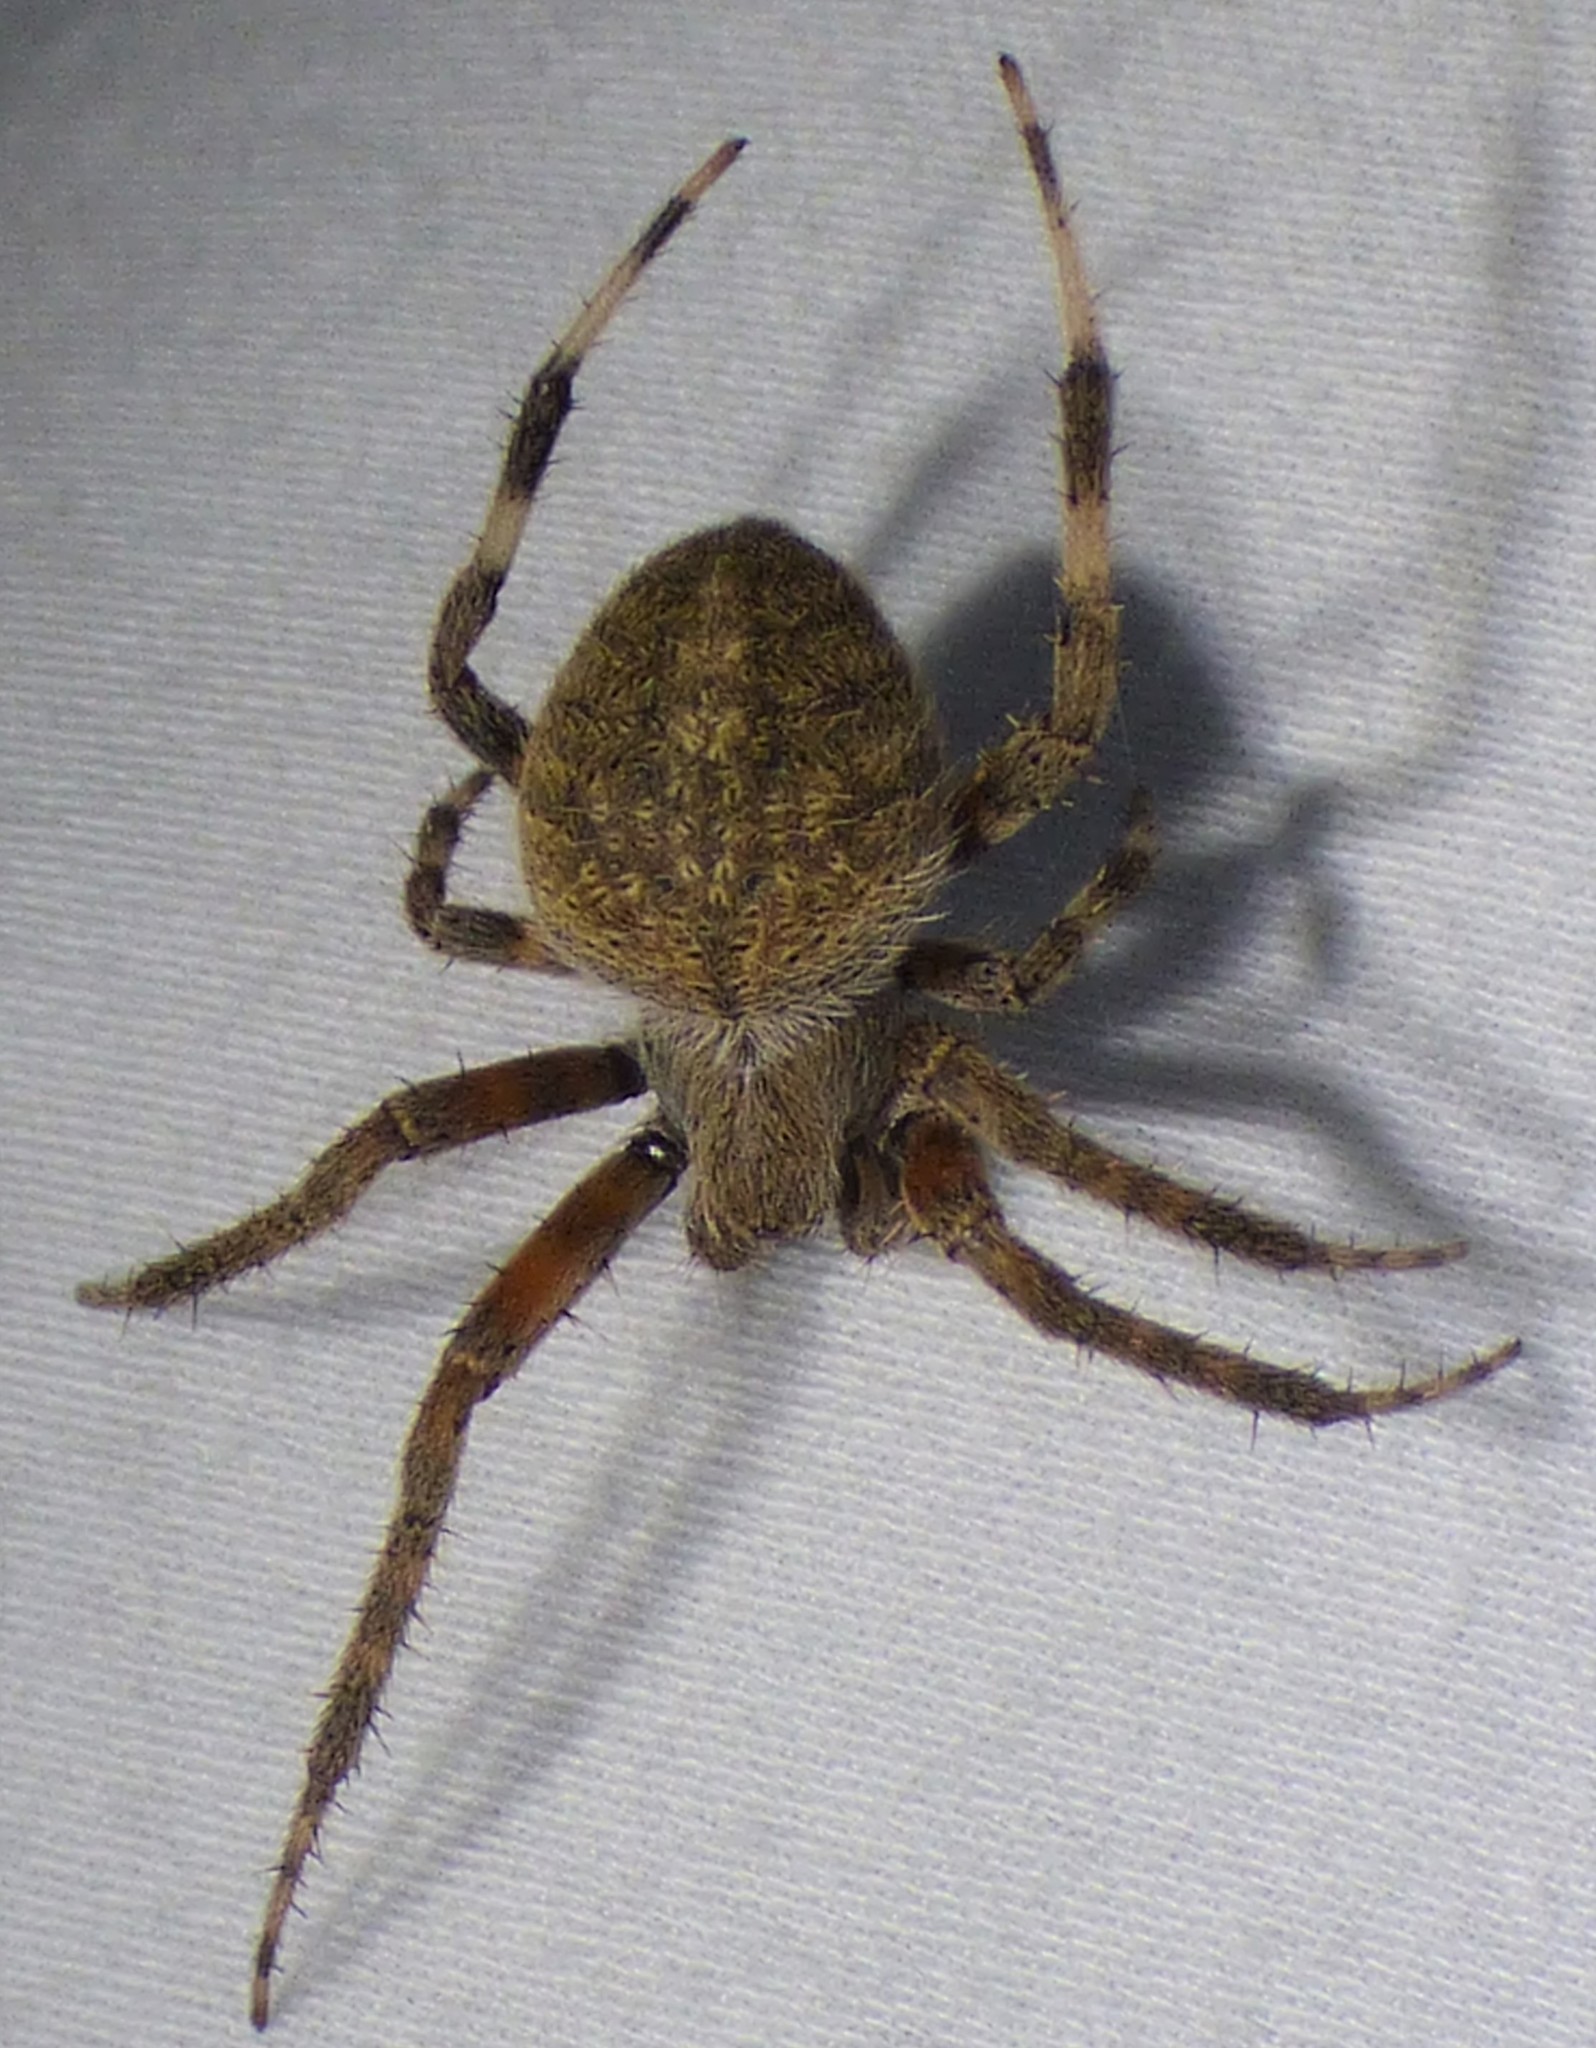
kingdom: Animalia
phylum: Arthropoda
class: Arachnida
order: Araneae
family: Araneidae
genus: Neoscona
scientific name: Neoscona crucifera
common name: Spotted orbweaver
